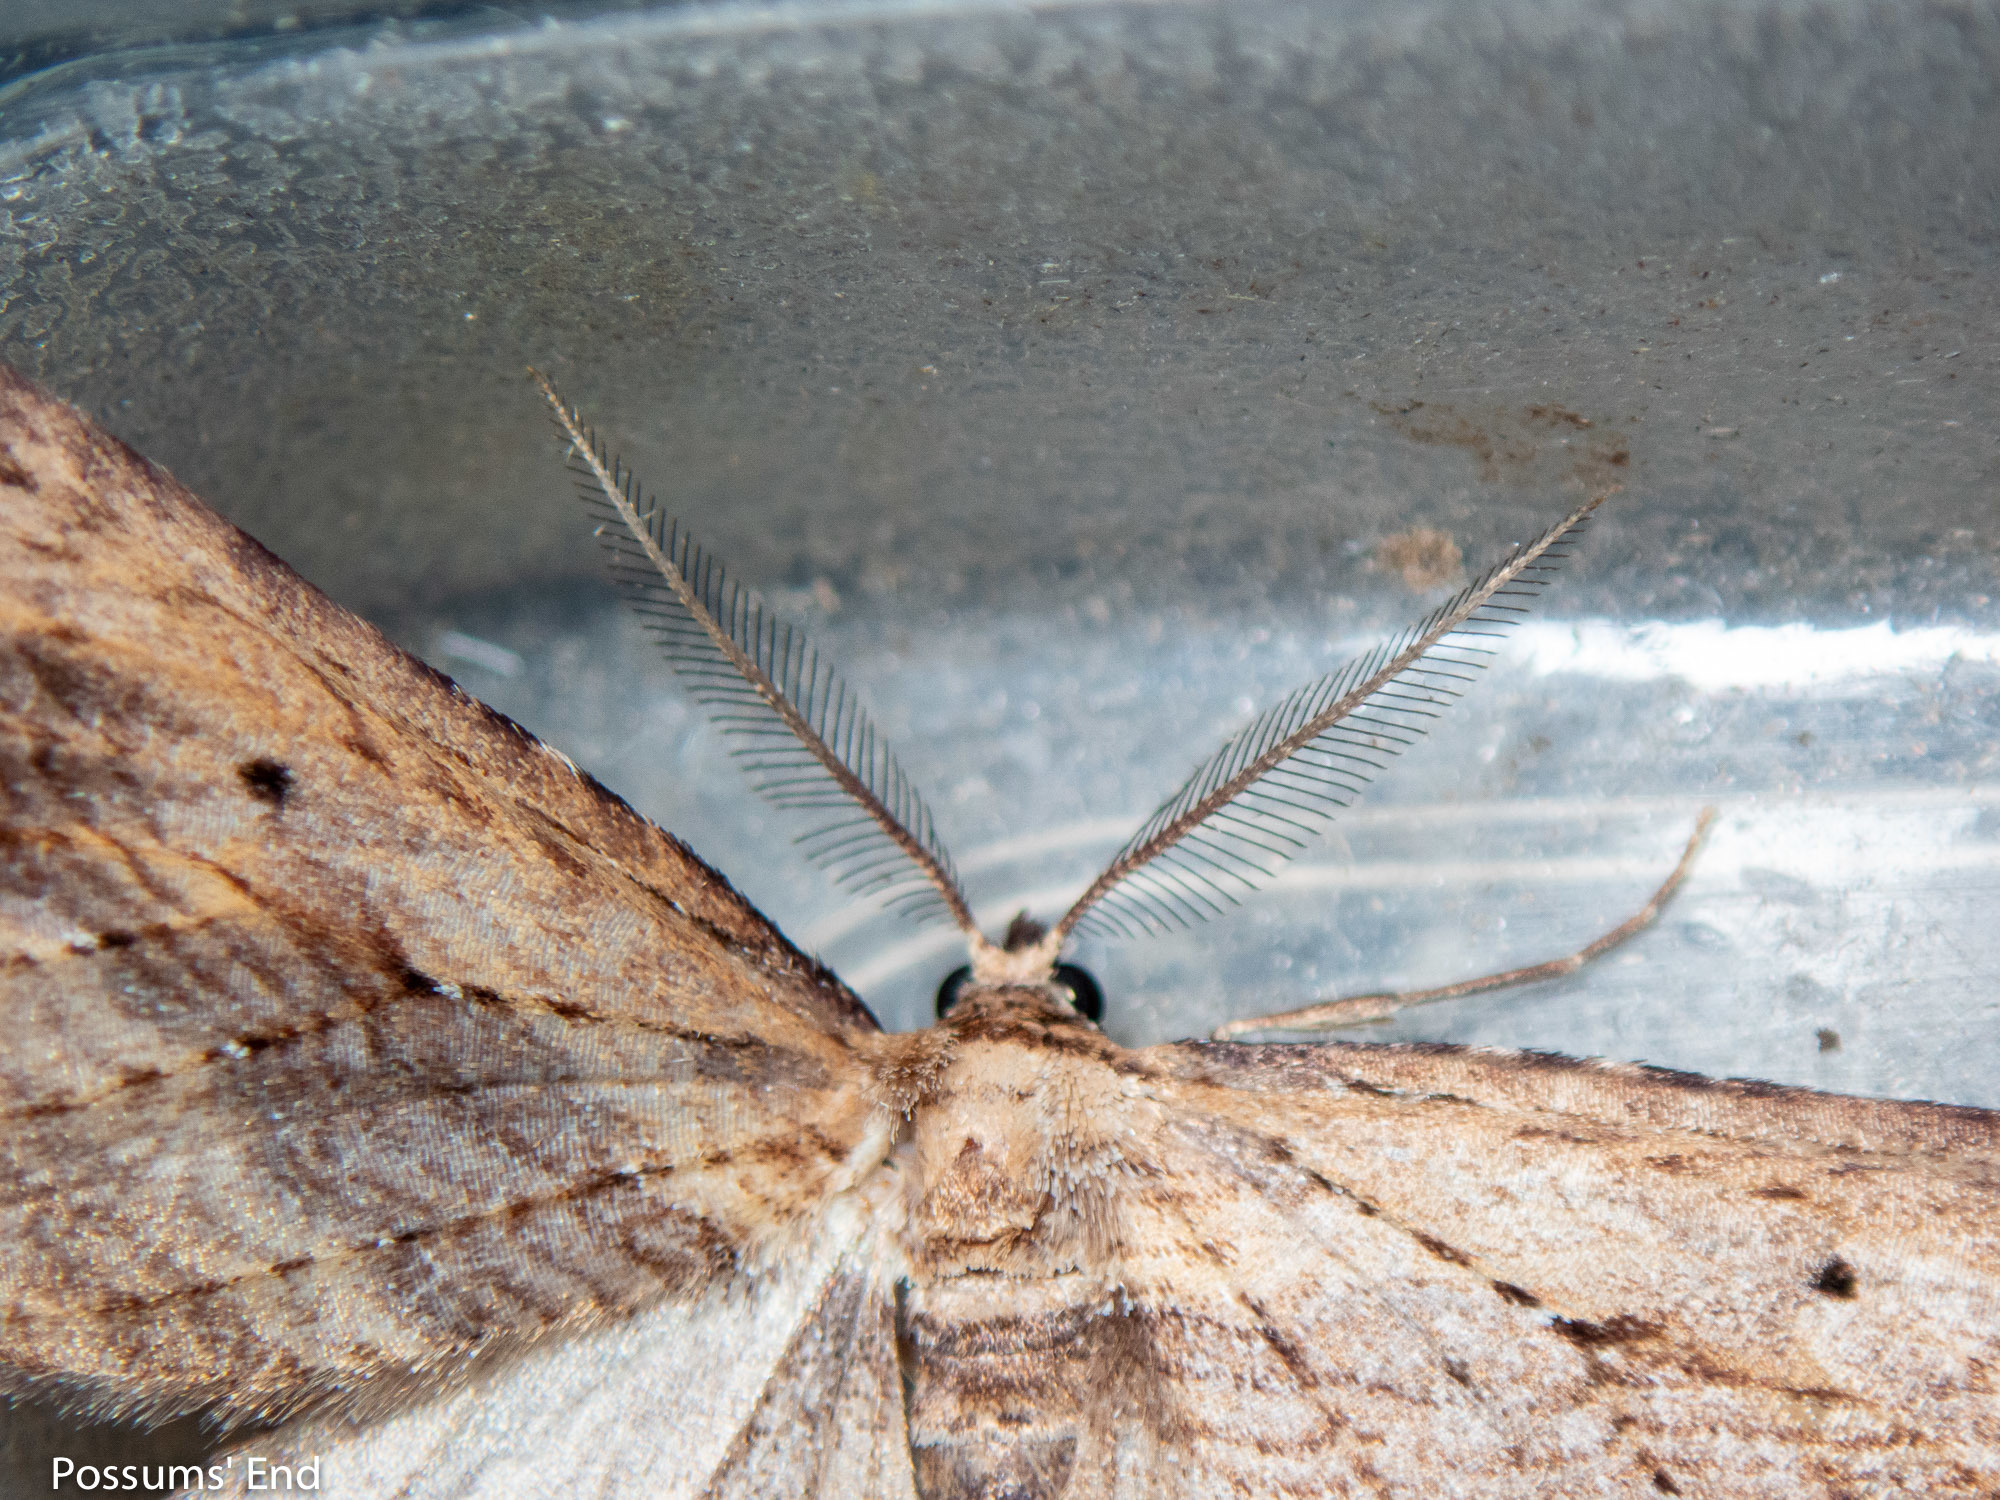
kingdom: Animalia
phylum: Arthropoda
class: Insecta
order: Lepidoptera
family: Geometridae
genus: Aponotoreas
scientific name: Aponotoreas dissimilis
